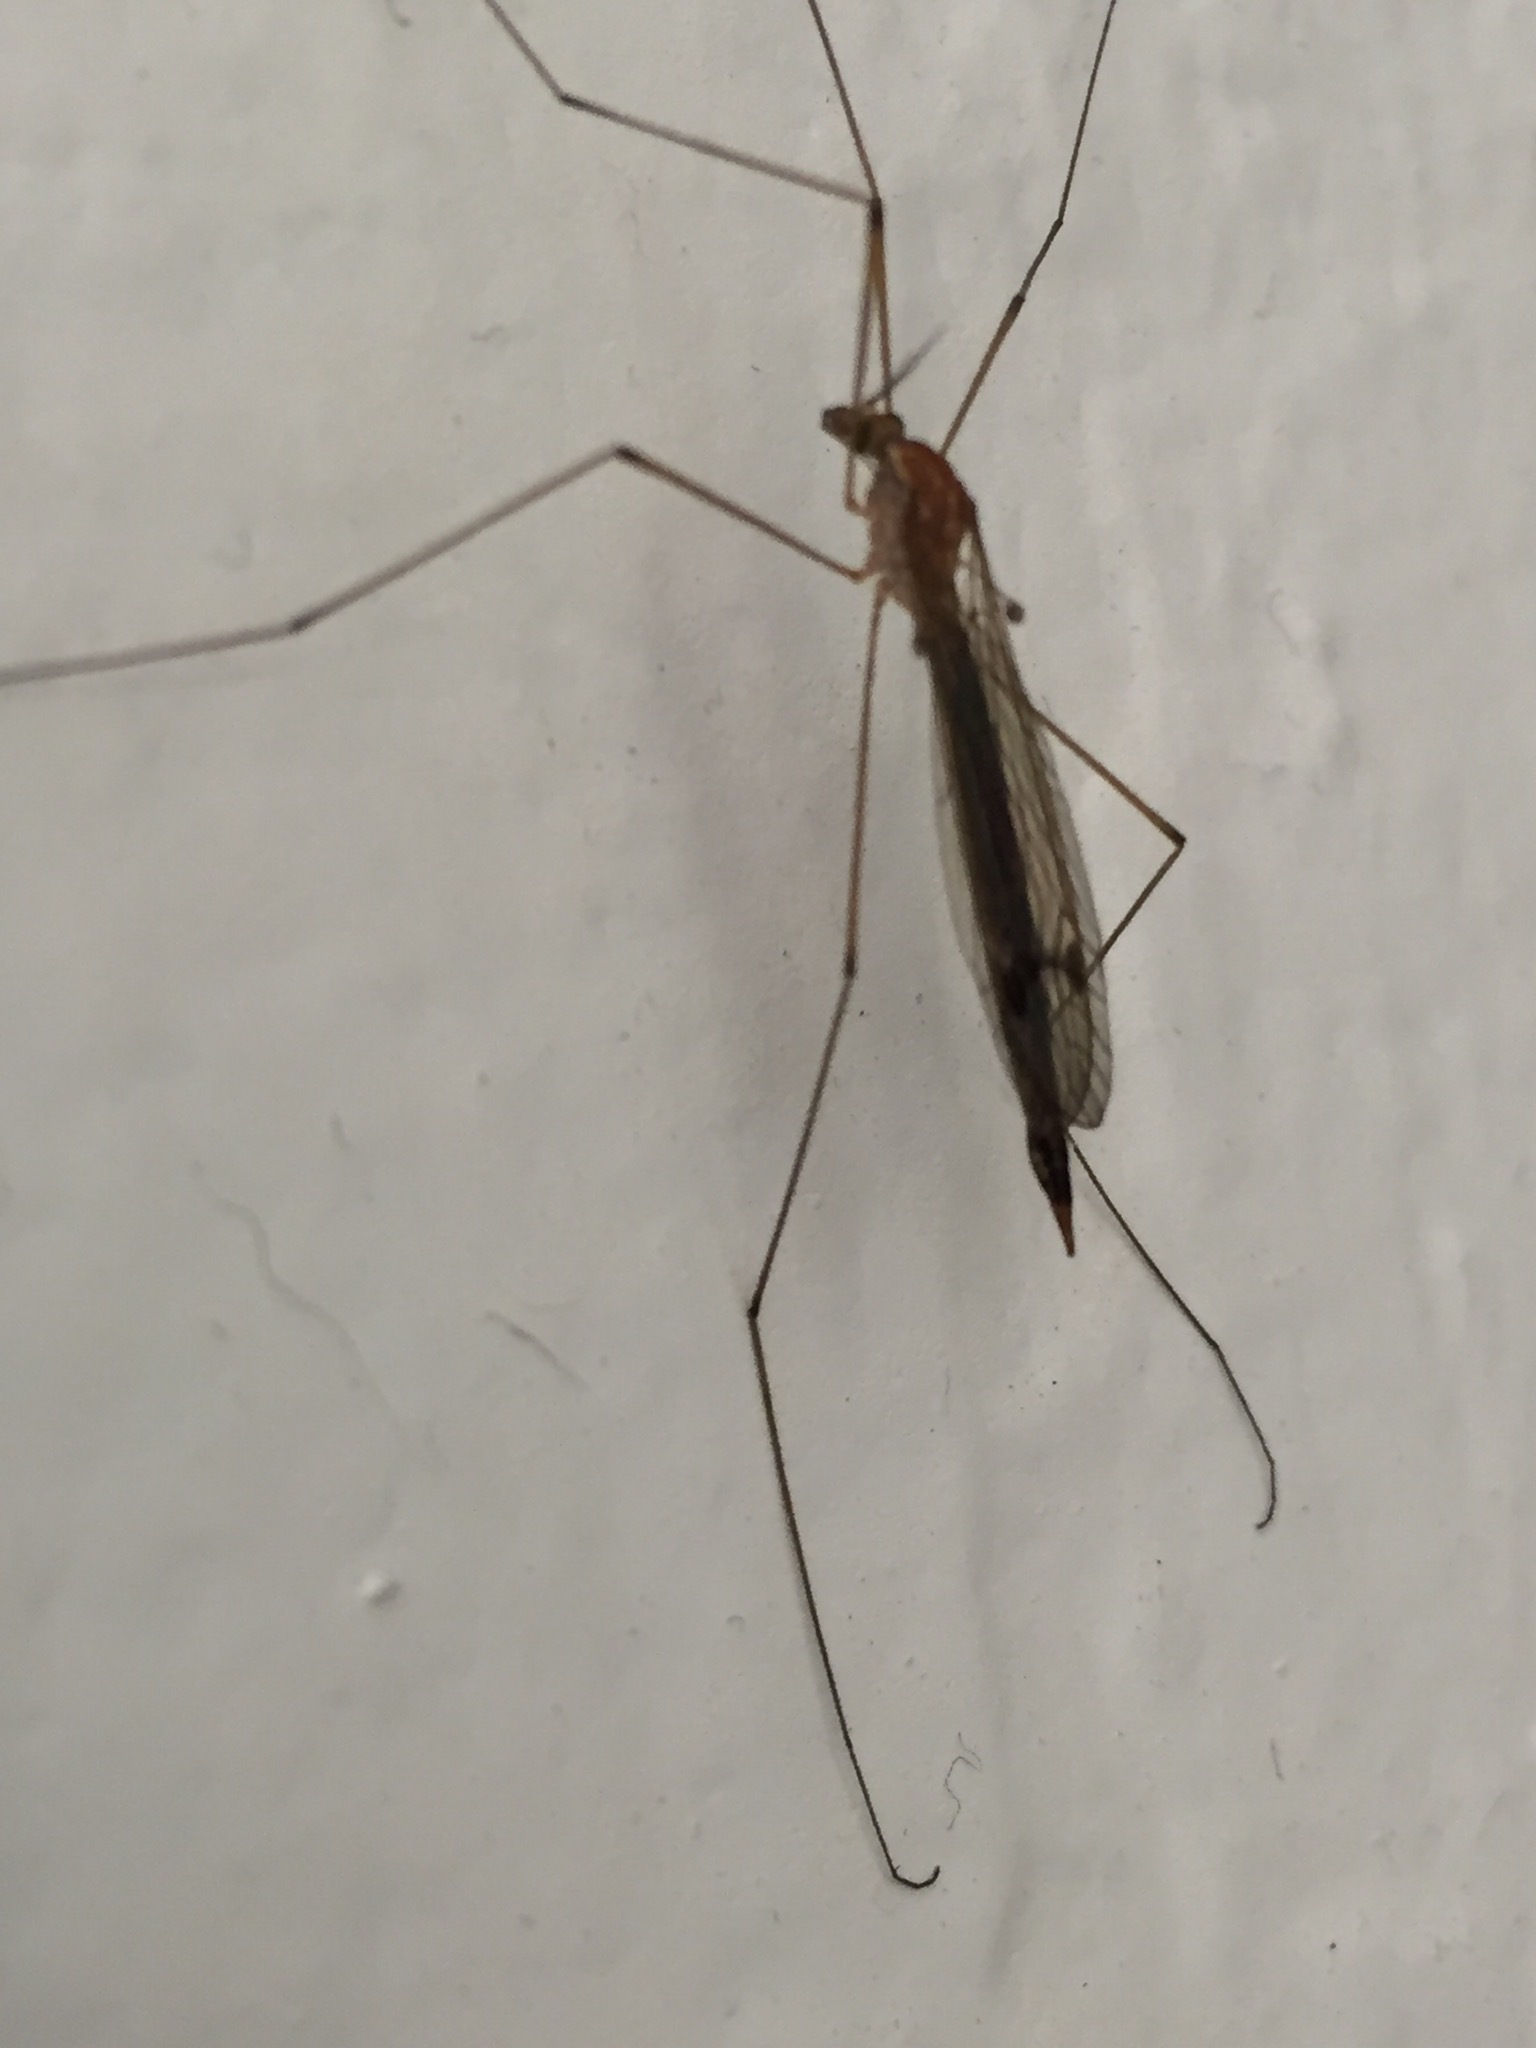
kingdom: Animalia
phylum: Arthropoda
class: Insecta
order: Diptera
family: Tipulidae
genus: Nephrotoma
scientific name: Nephrotoma
